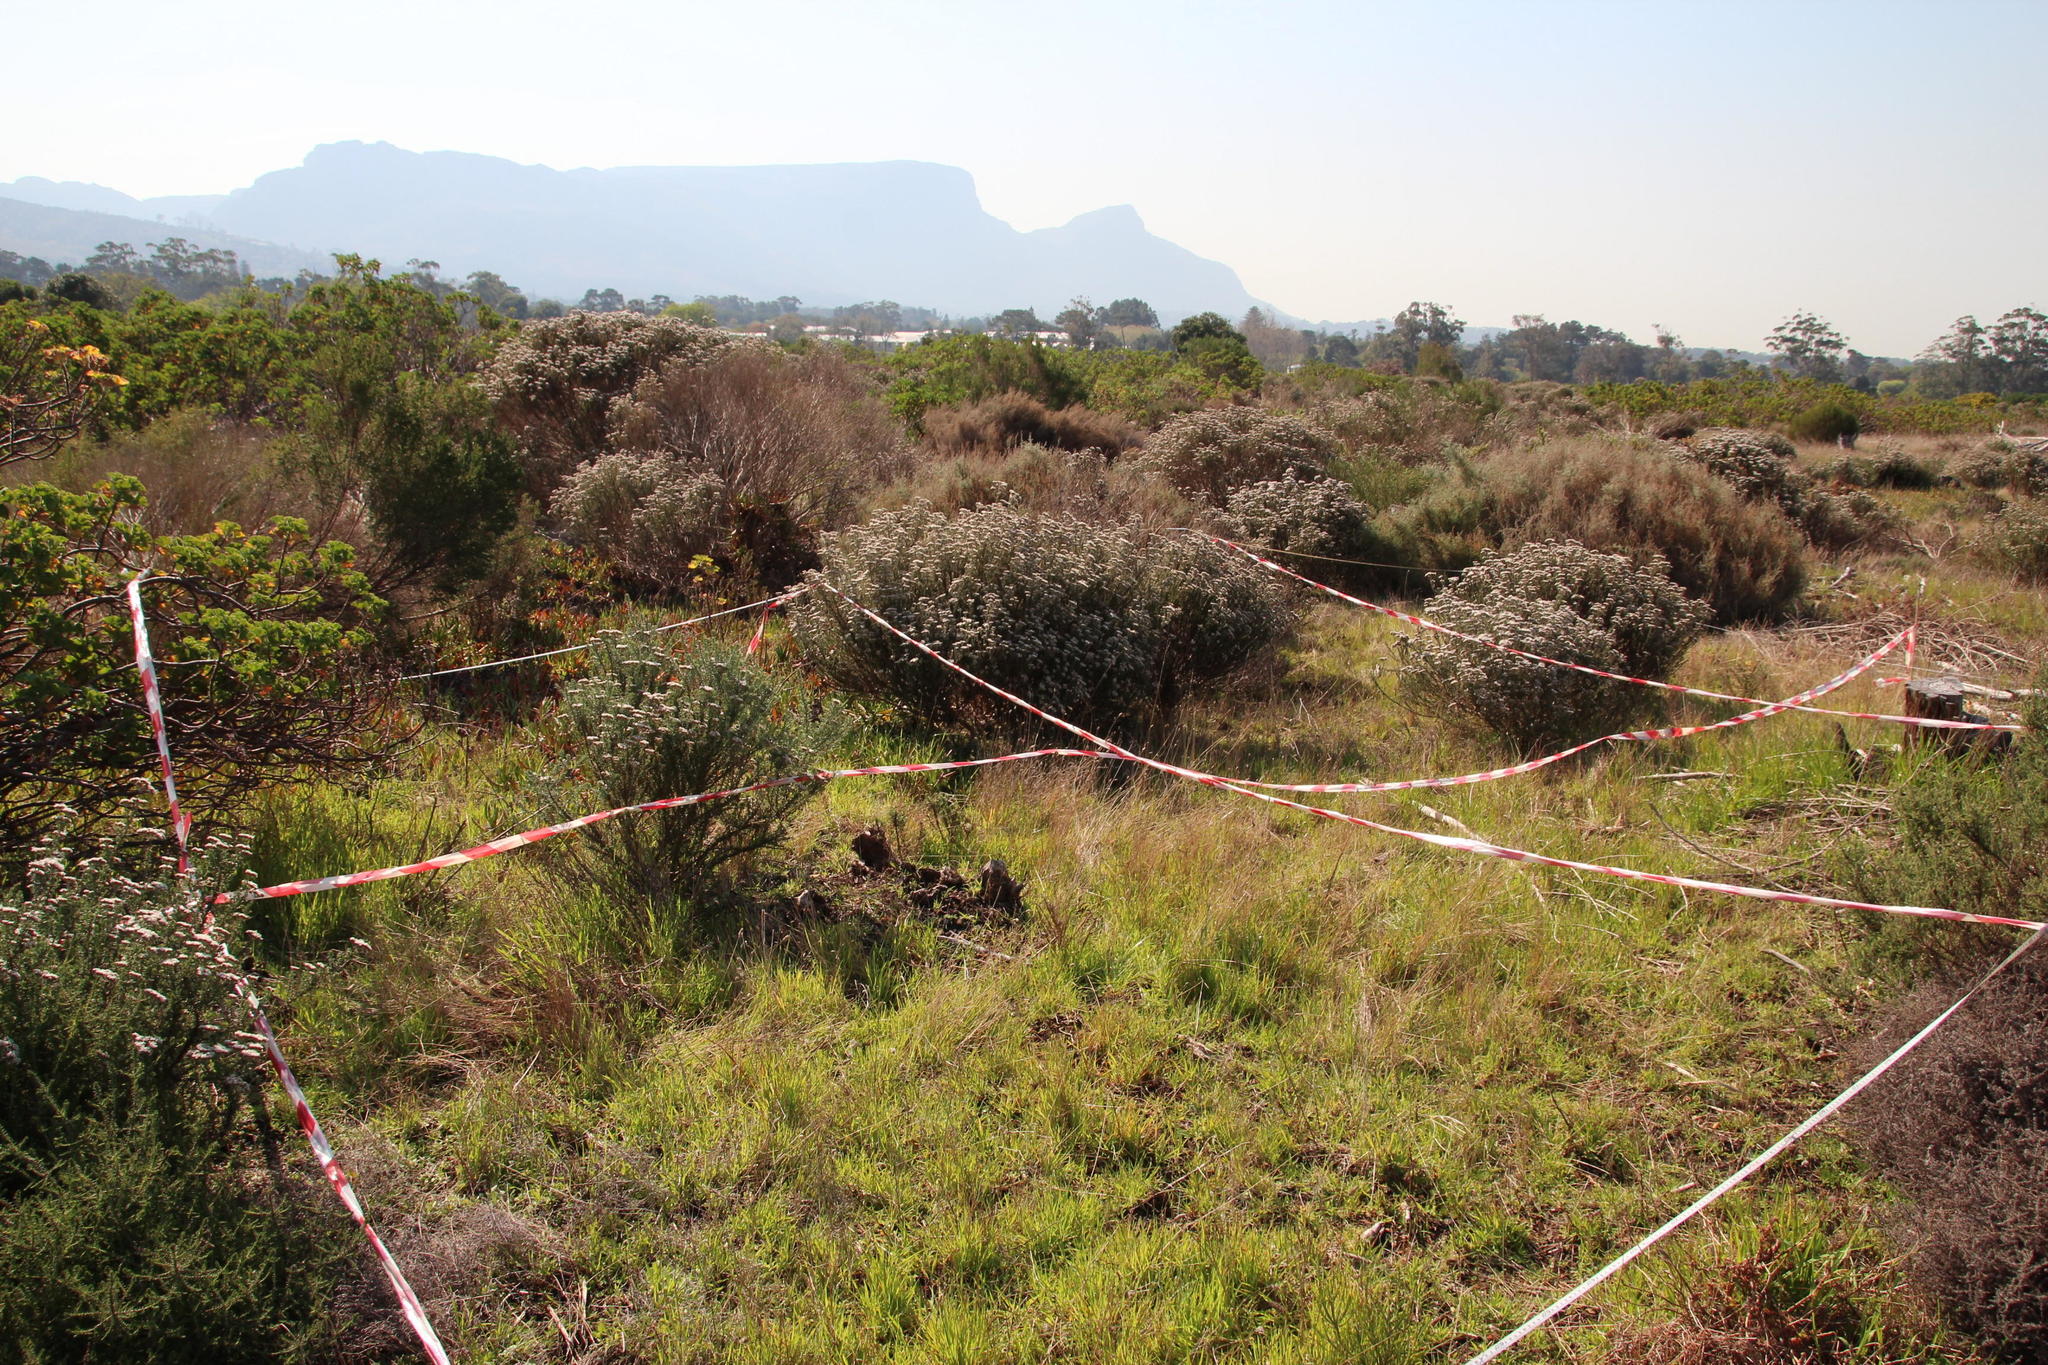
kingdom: Plantae
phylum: Tracheophyta
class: Magnoliopsida
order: Asterales
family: Asteraceae
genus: Metalasia
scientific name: Metalasia densa
